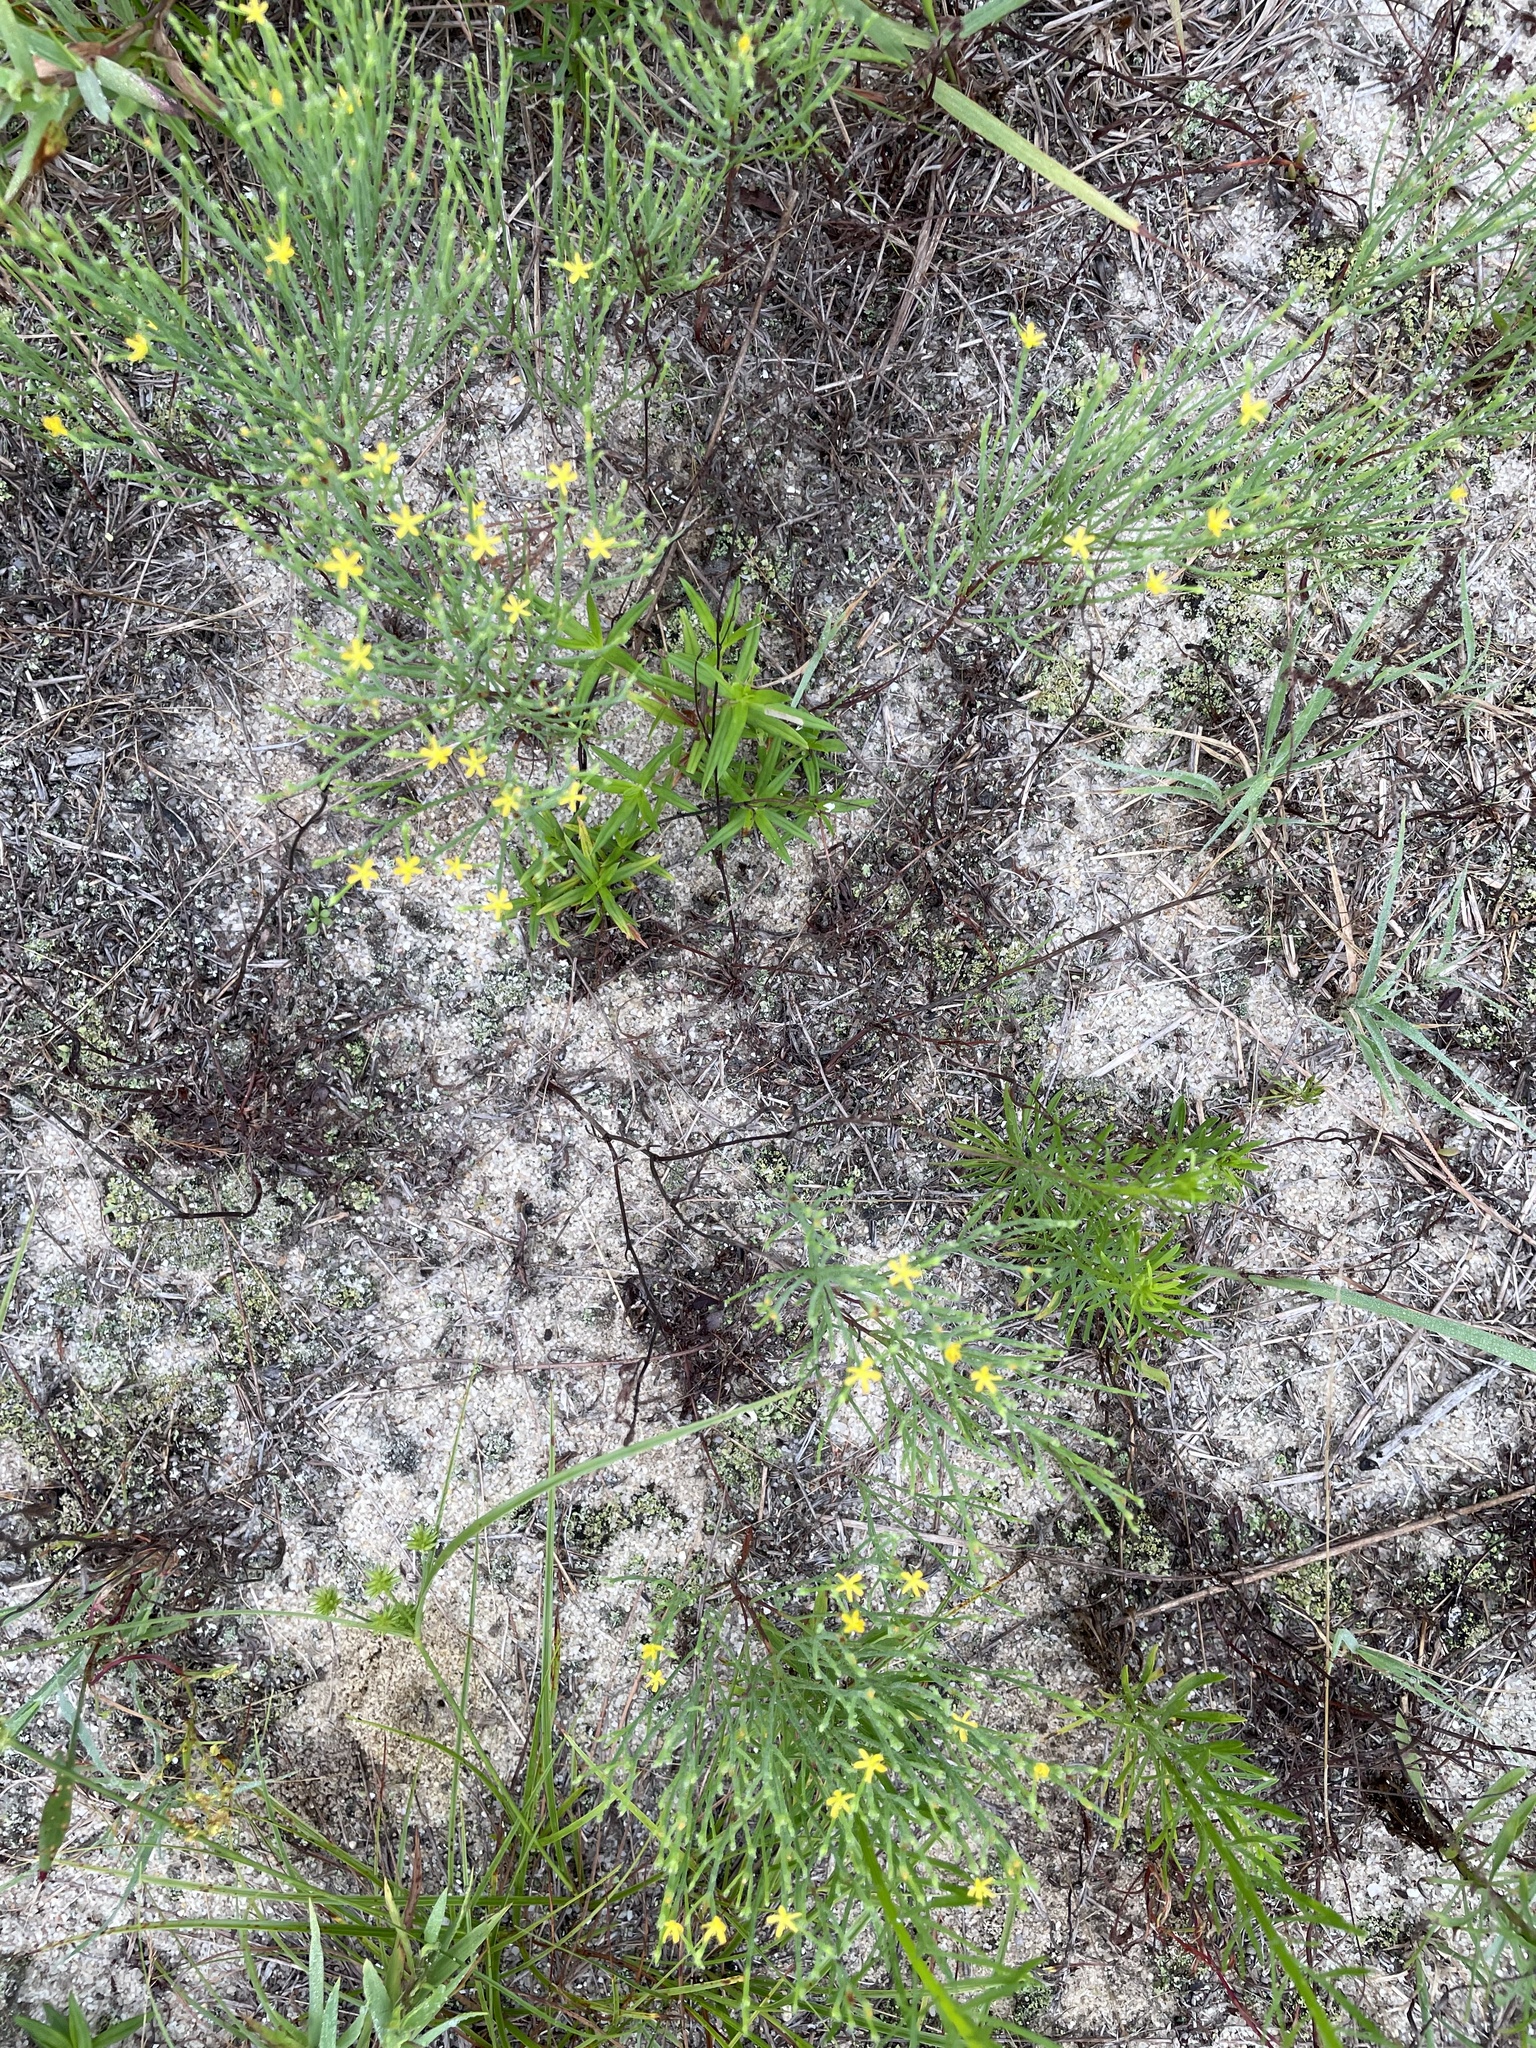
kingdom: Plantae
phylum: Tracheophyta
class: Magnoliopsida
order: Malpighiales
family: Hypericaceae
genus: Hypericum
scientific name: Hypericum gentianoides
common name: Gentian-leaved st. john's-wort
